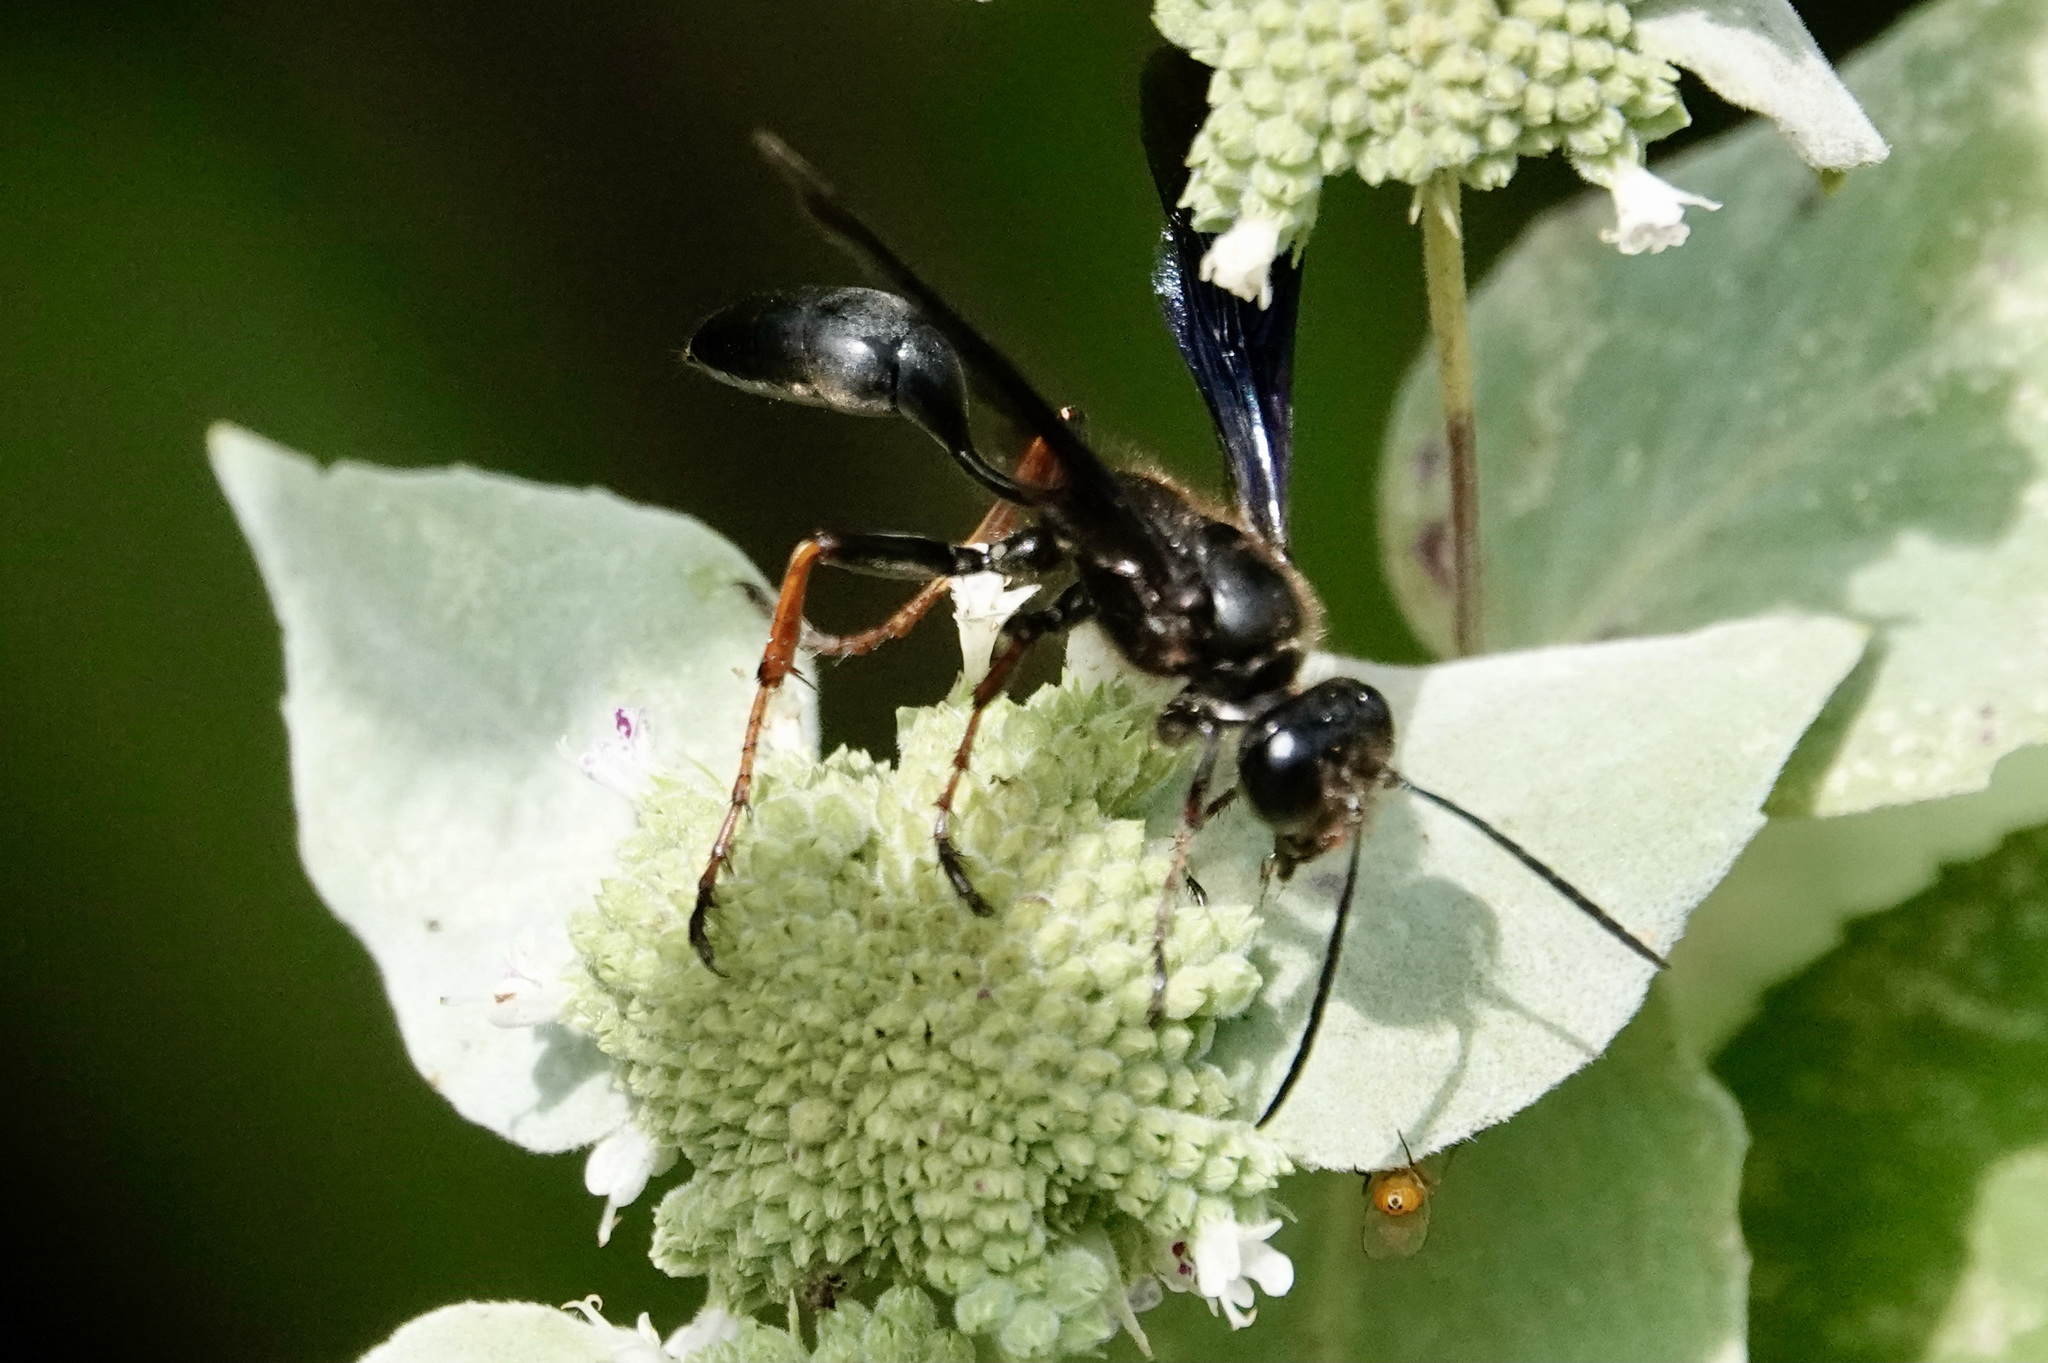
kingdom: Animalia
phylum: Arthropoda
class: Insecta
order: Hymenoptera
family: Sphecidae
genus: Isodontia
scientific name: Isodontia auripes
